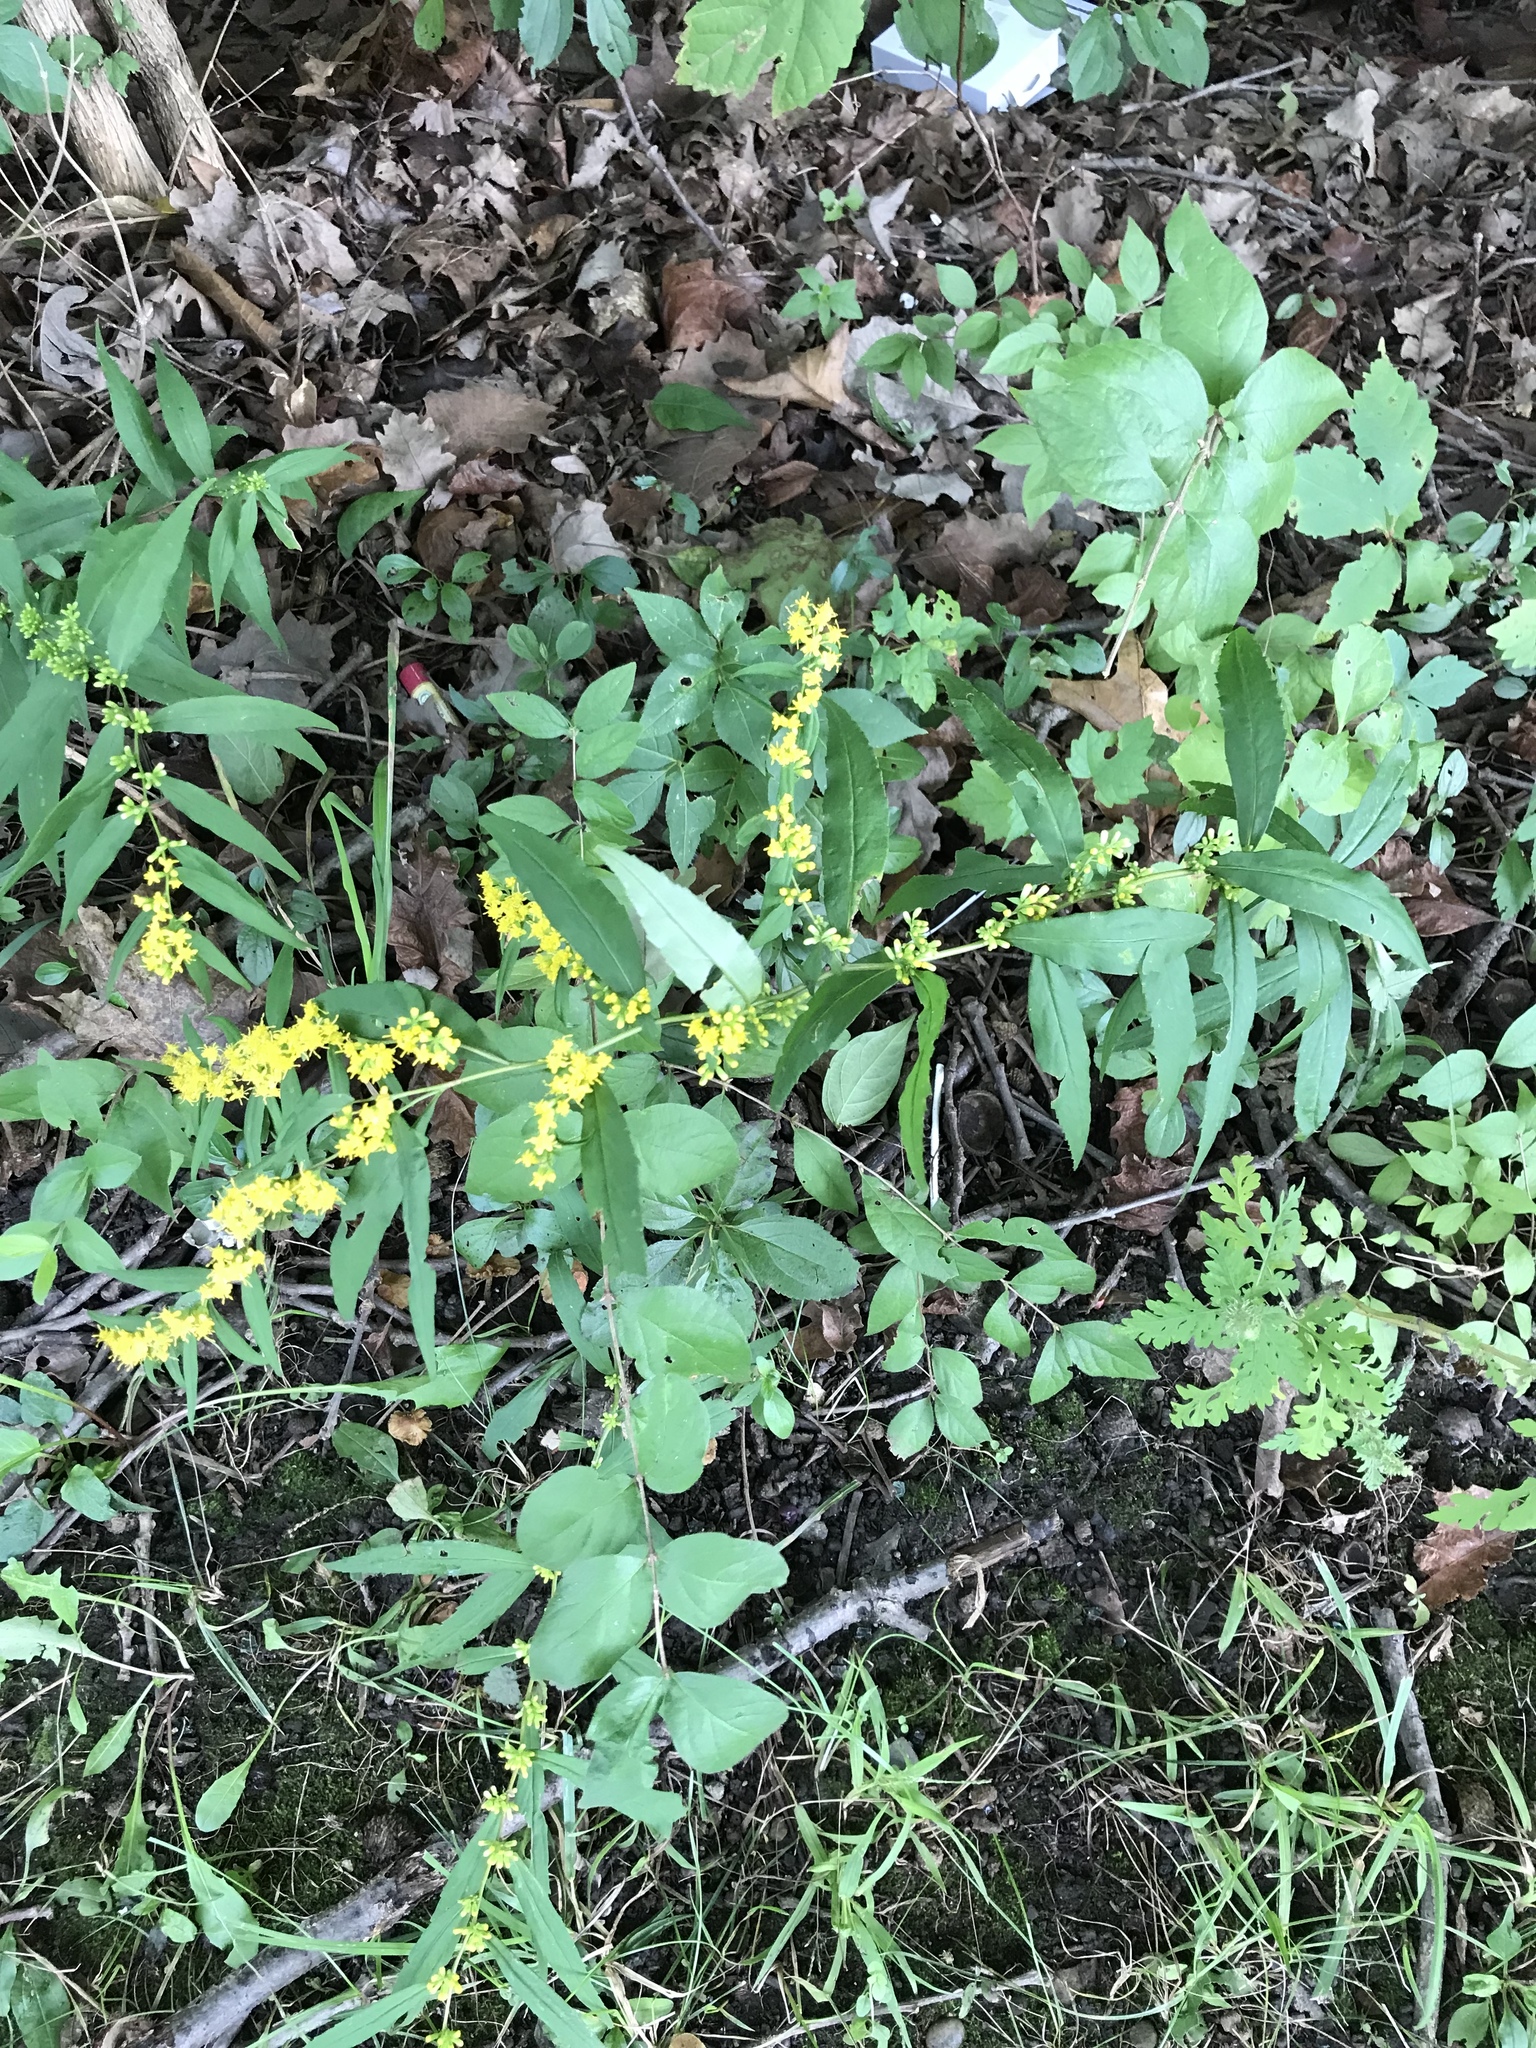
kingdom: Plantae
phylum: Tracheophyta
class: Magnoliopsida
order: Asterales
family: Asteraceae
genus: Solidago
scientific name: Solidago caesia
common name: Woodland goldenrod
